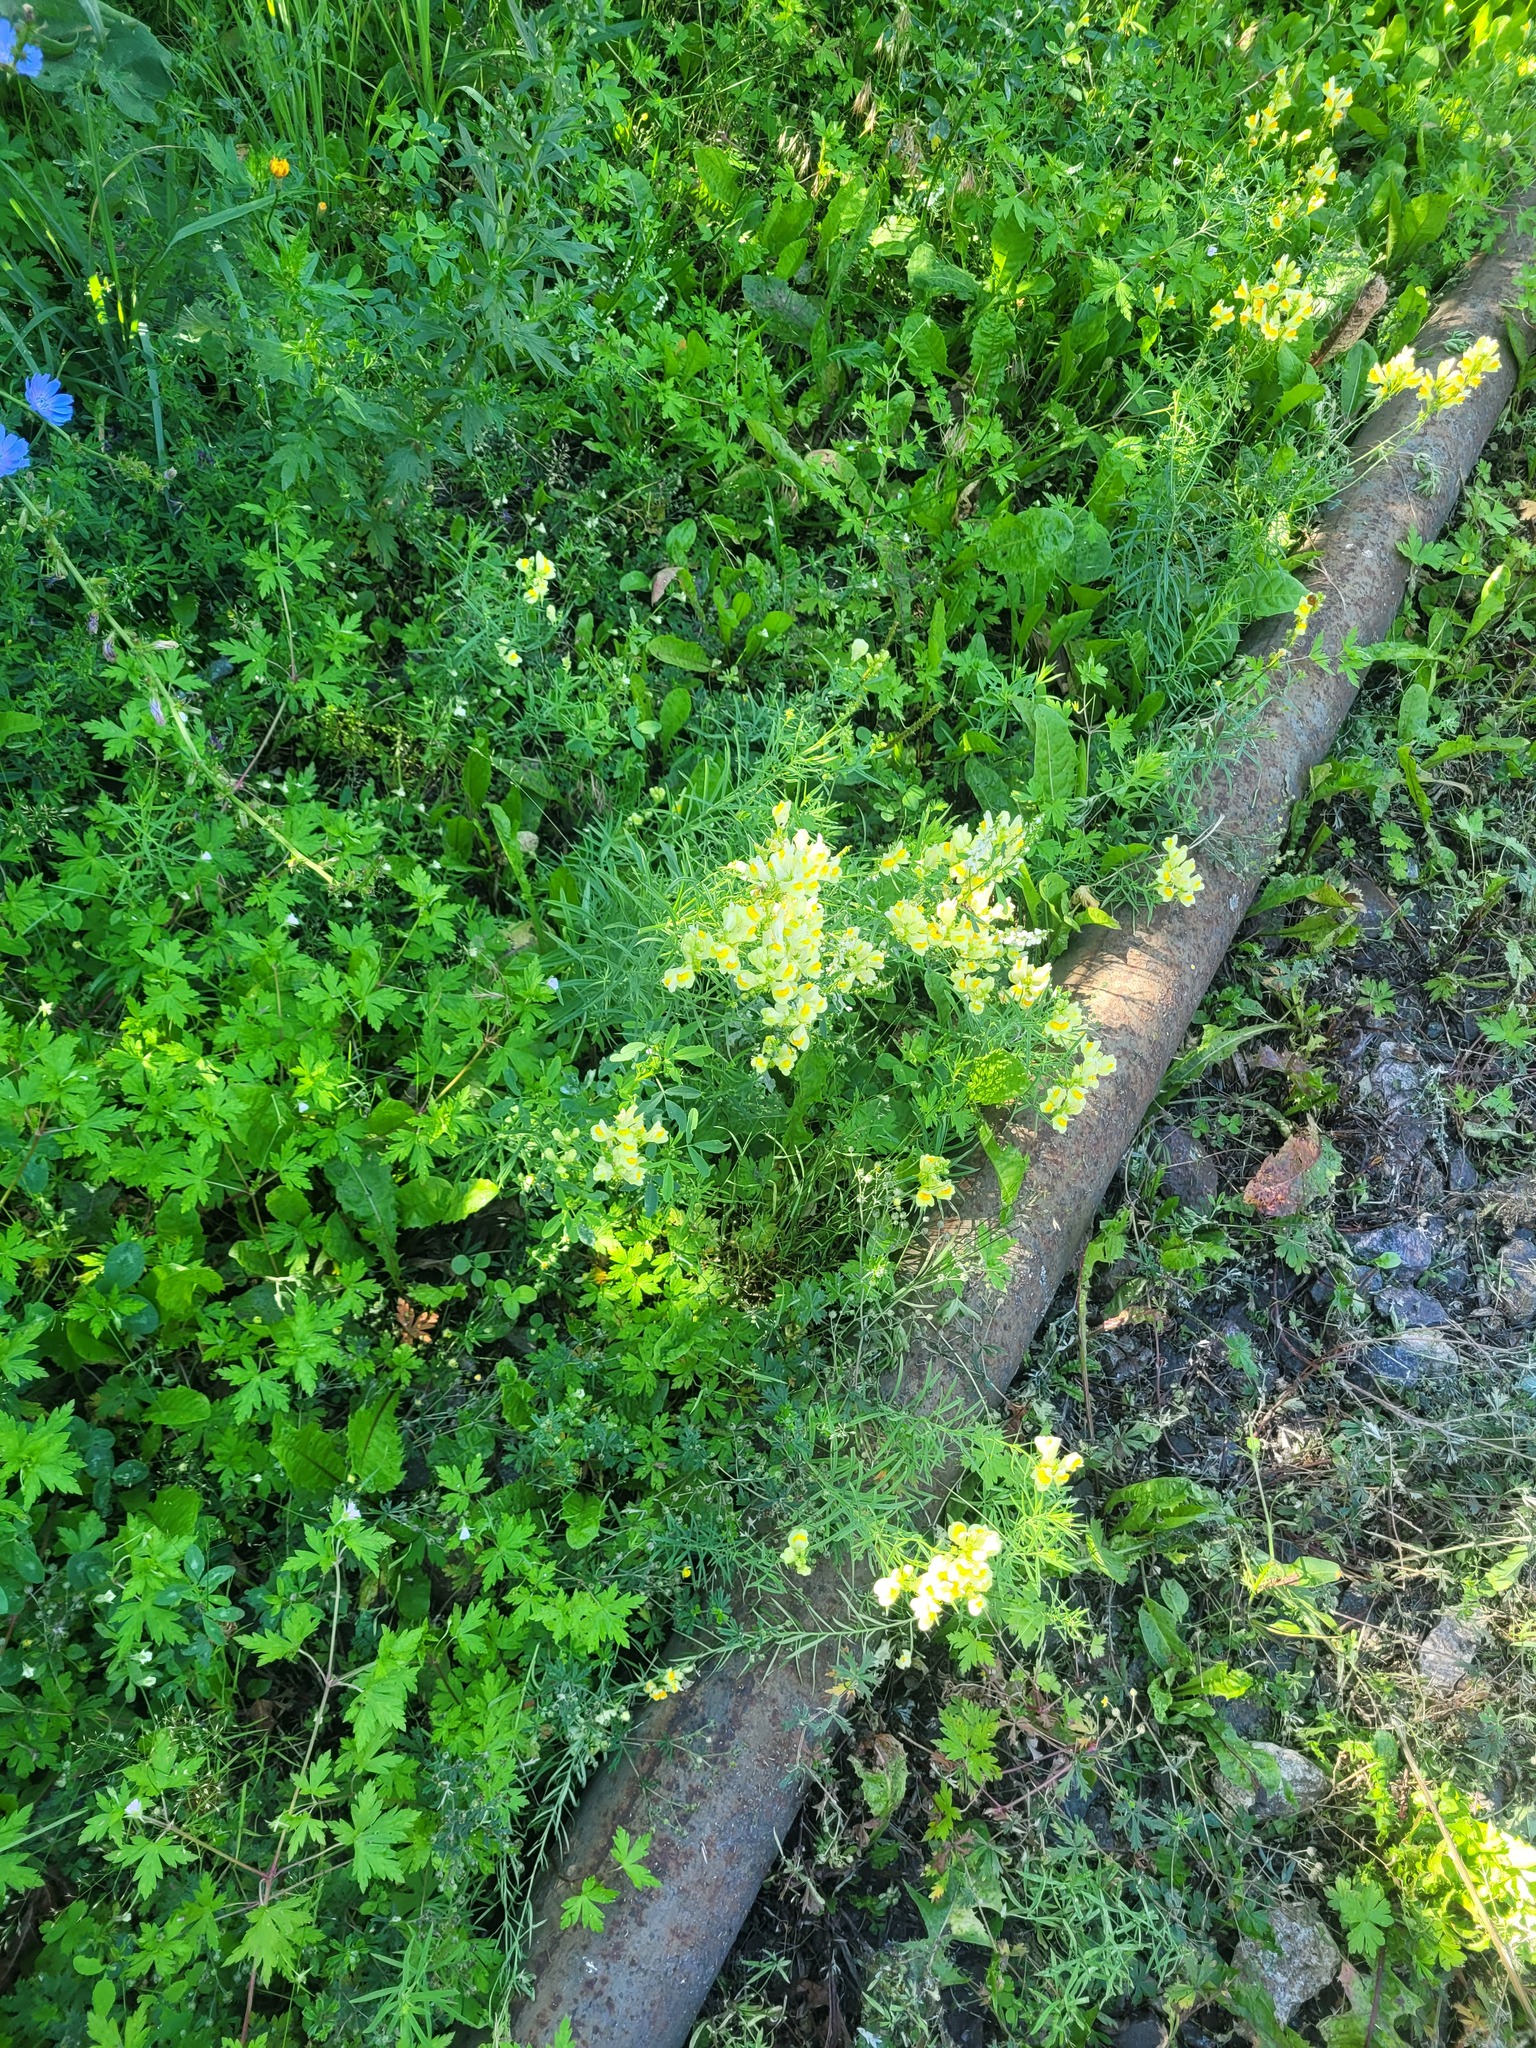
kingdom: Plantae
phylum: Tracheophyta
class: Magnoliopsida
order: Lamiales
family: Plantaginaceae
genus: Linaria
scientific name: Linaria vulgaris
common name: Butter and eggs
